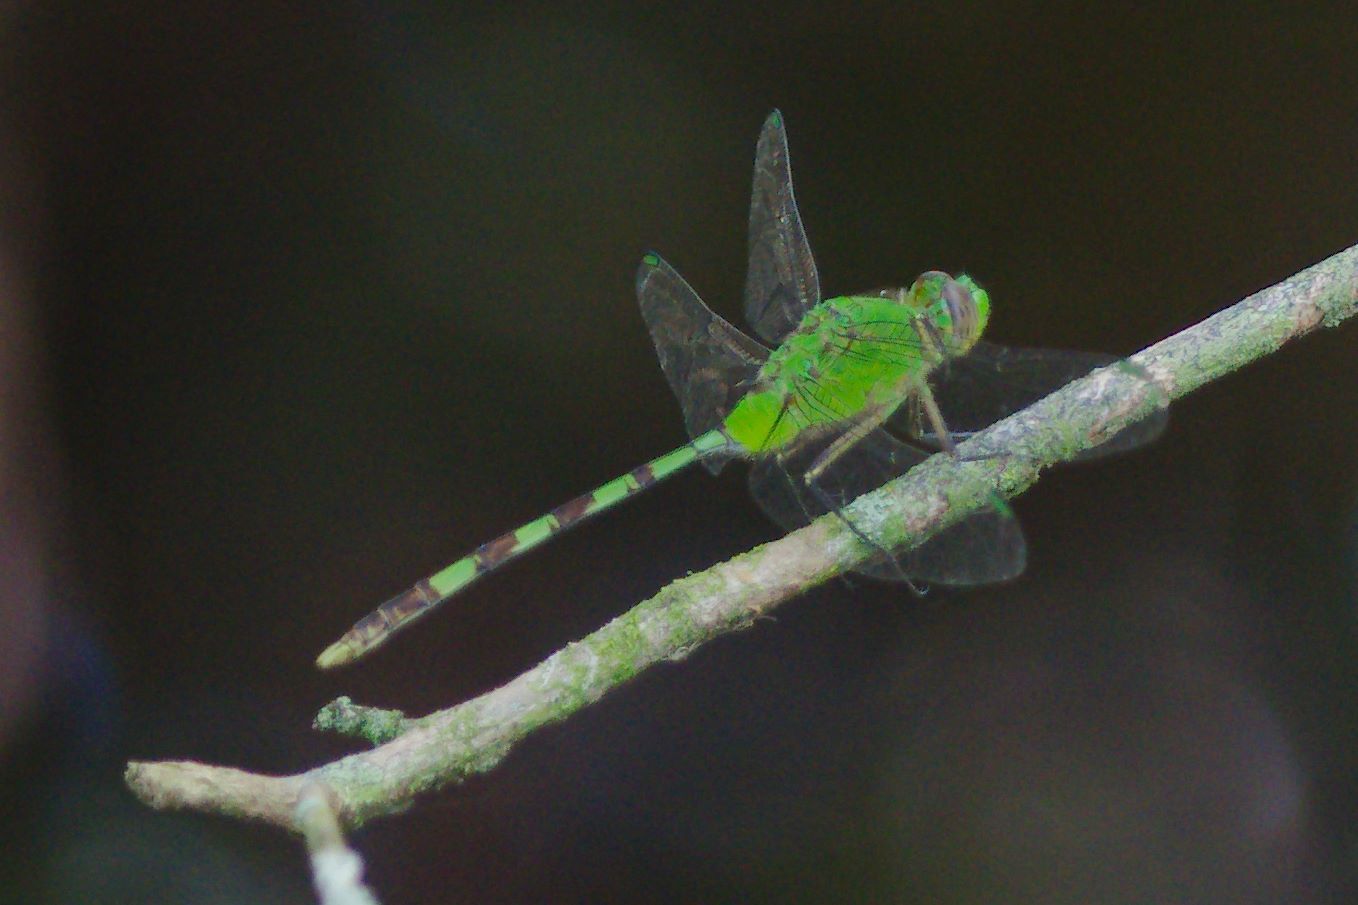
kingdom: Animalia
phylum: Arthropoda
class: Insecta
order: Odonata
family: Libellulidae
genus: Erythemis
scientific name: Erythemis vesiculosa
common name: Great pondhawk
